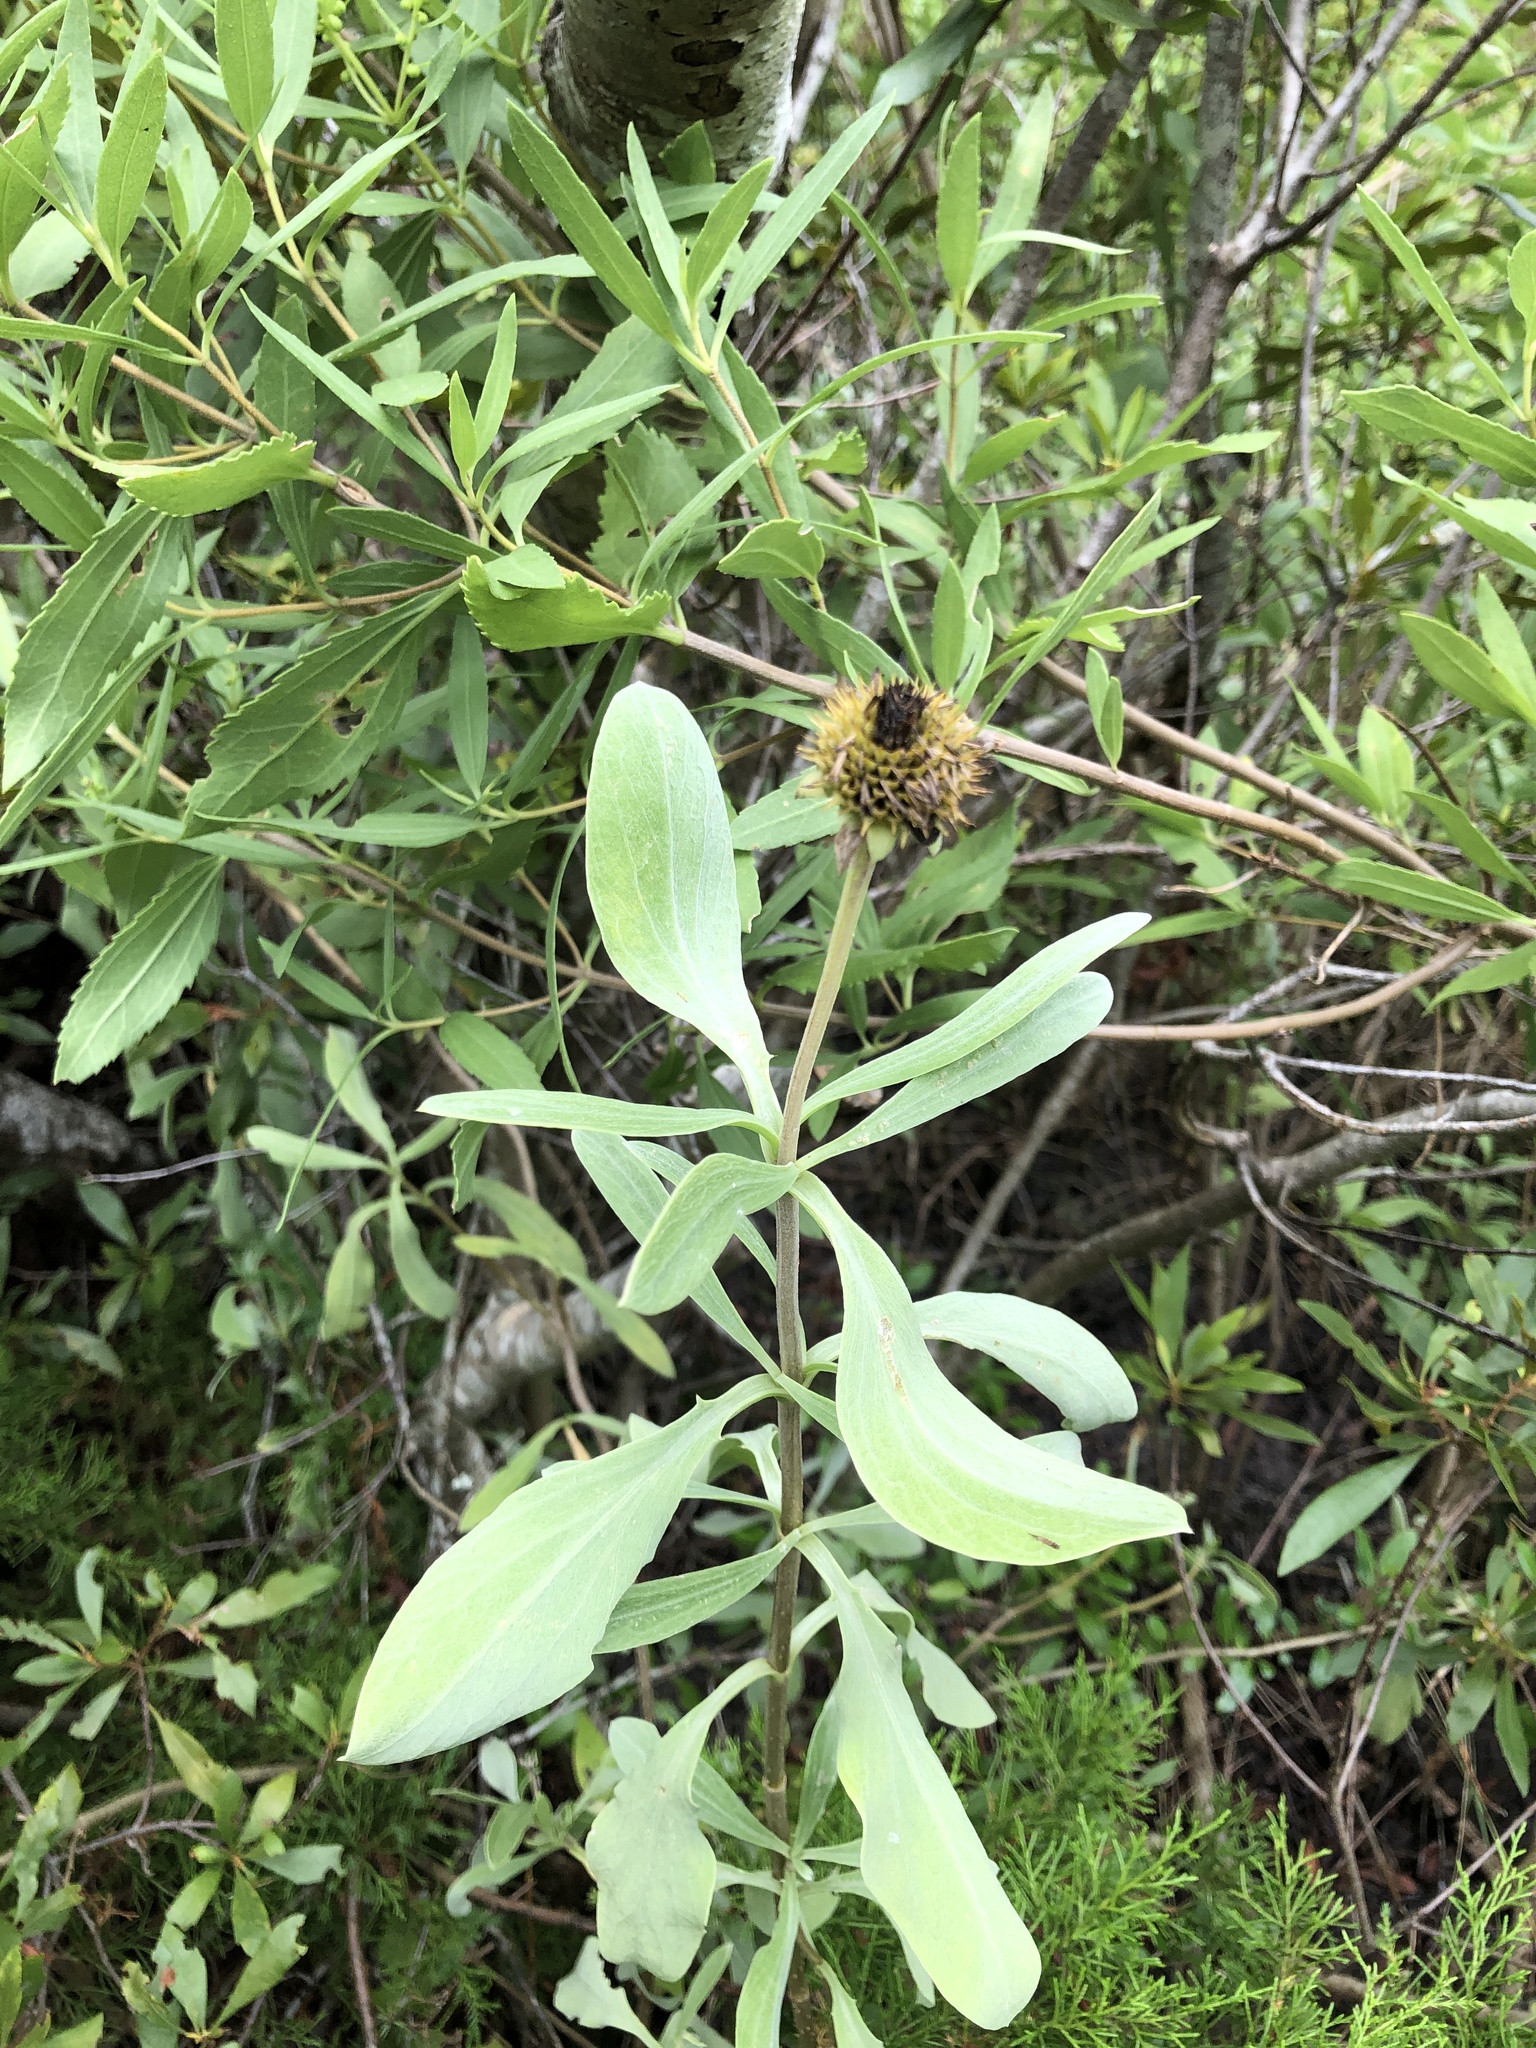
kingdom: Plantae
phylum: Tracheophyta
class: Magnoliopsida
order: Asterales
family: Asteraceae
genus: Borrichia
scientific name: Borrichia frutescens
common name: Sea oxeye
